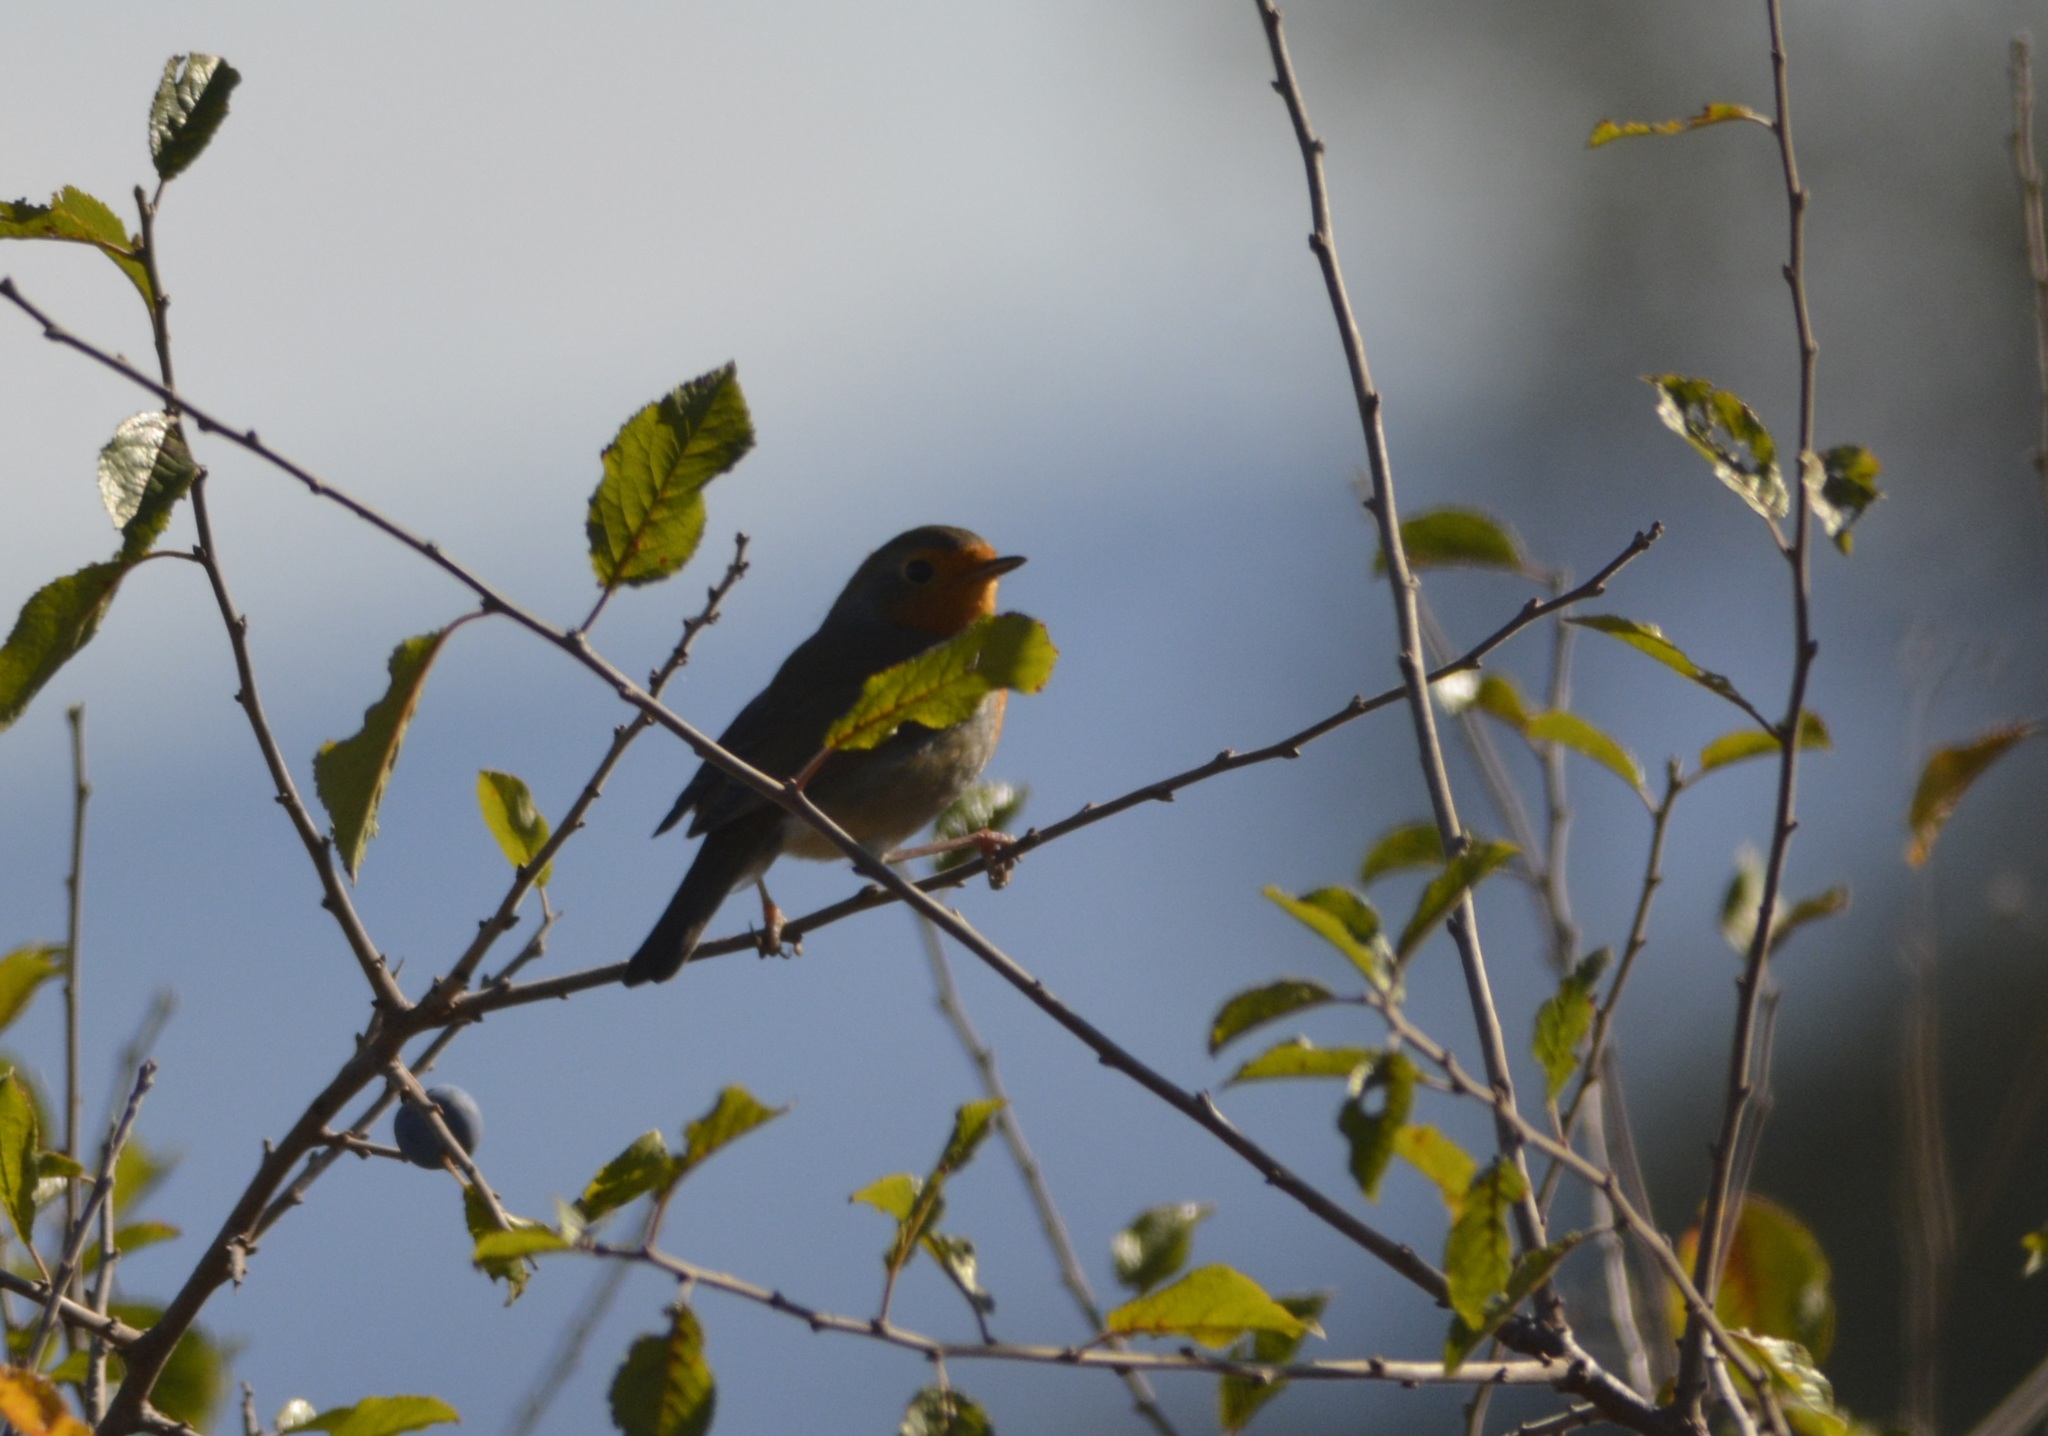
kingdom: Animalia
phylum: Chordata
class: Aves
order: Passeriformes
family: Muscicapidae
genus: Erithacus
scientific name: Erithacus rubecula
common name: European robin
